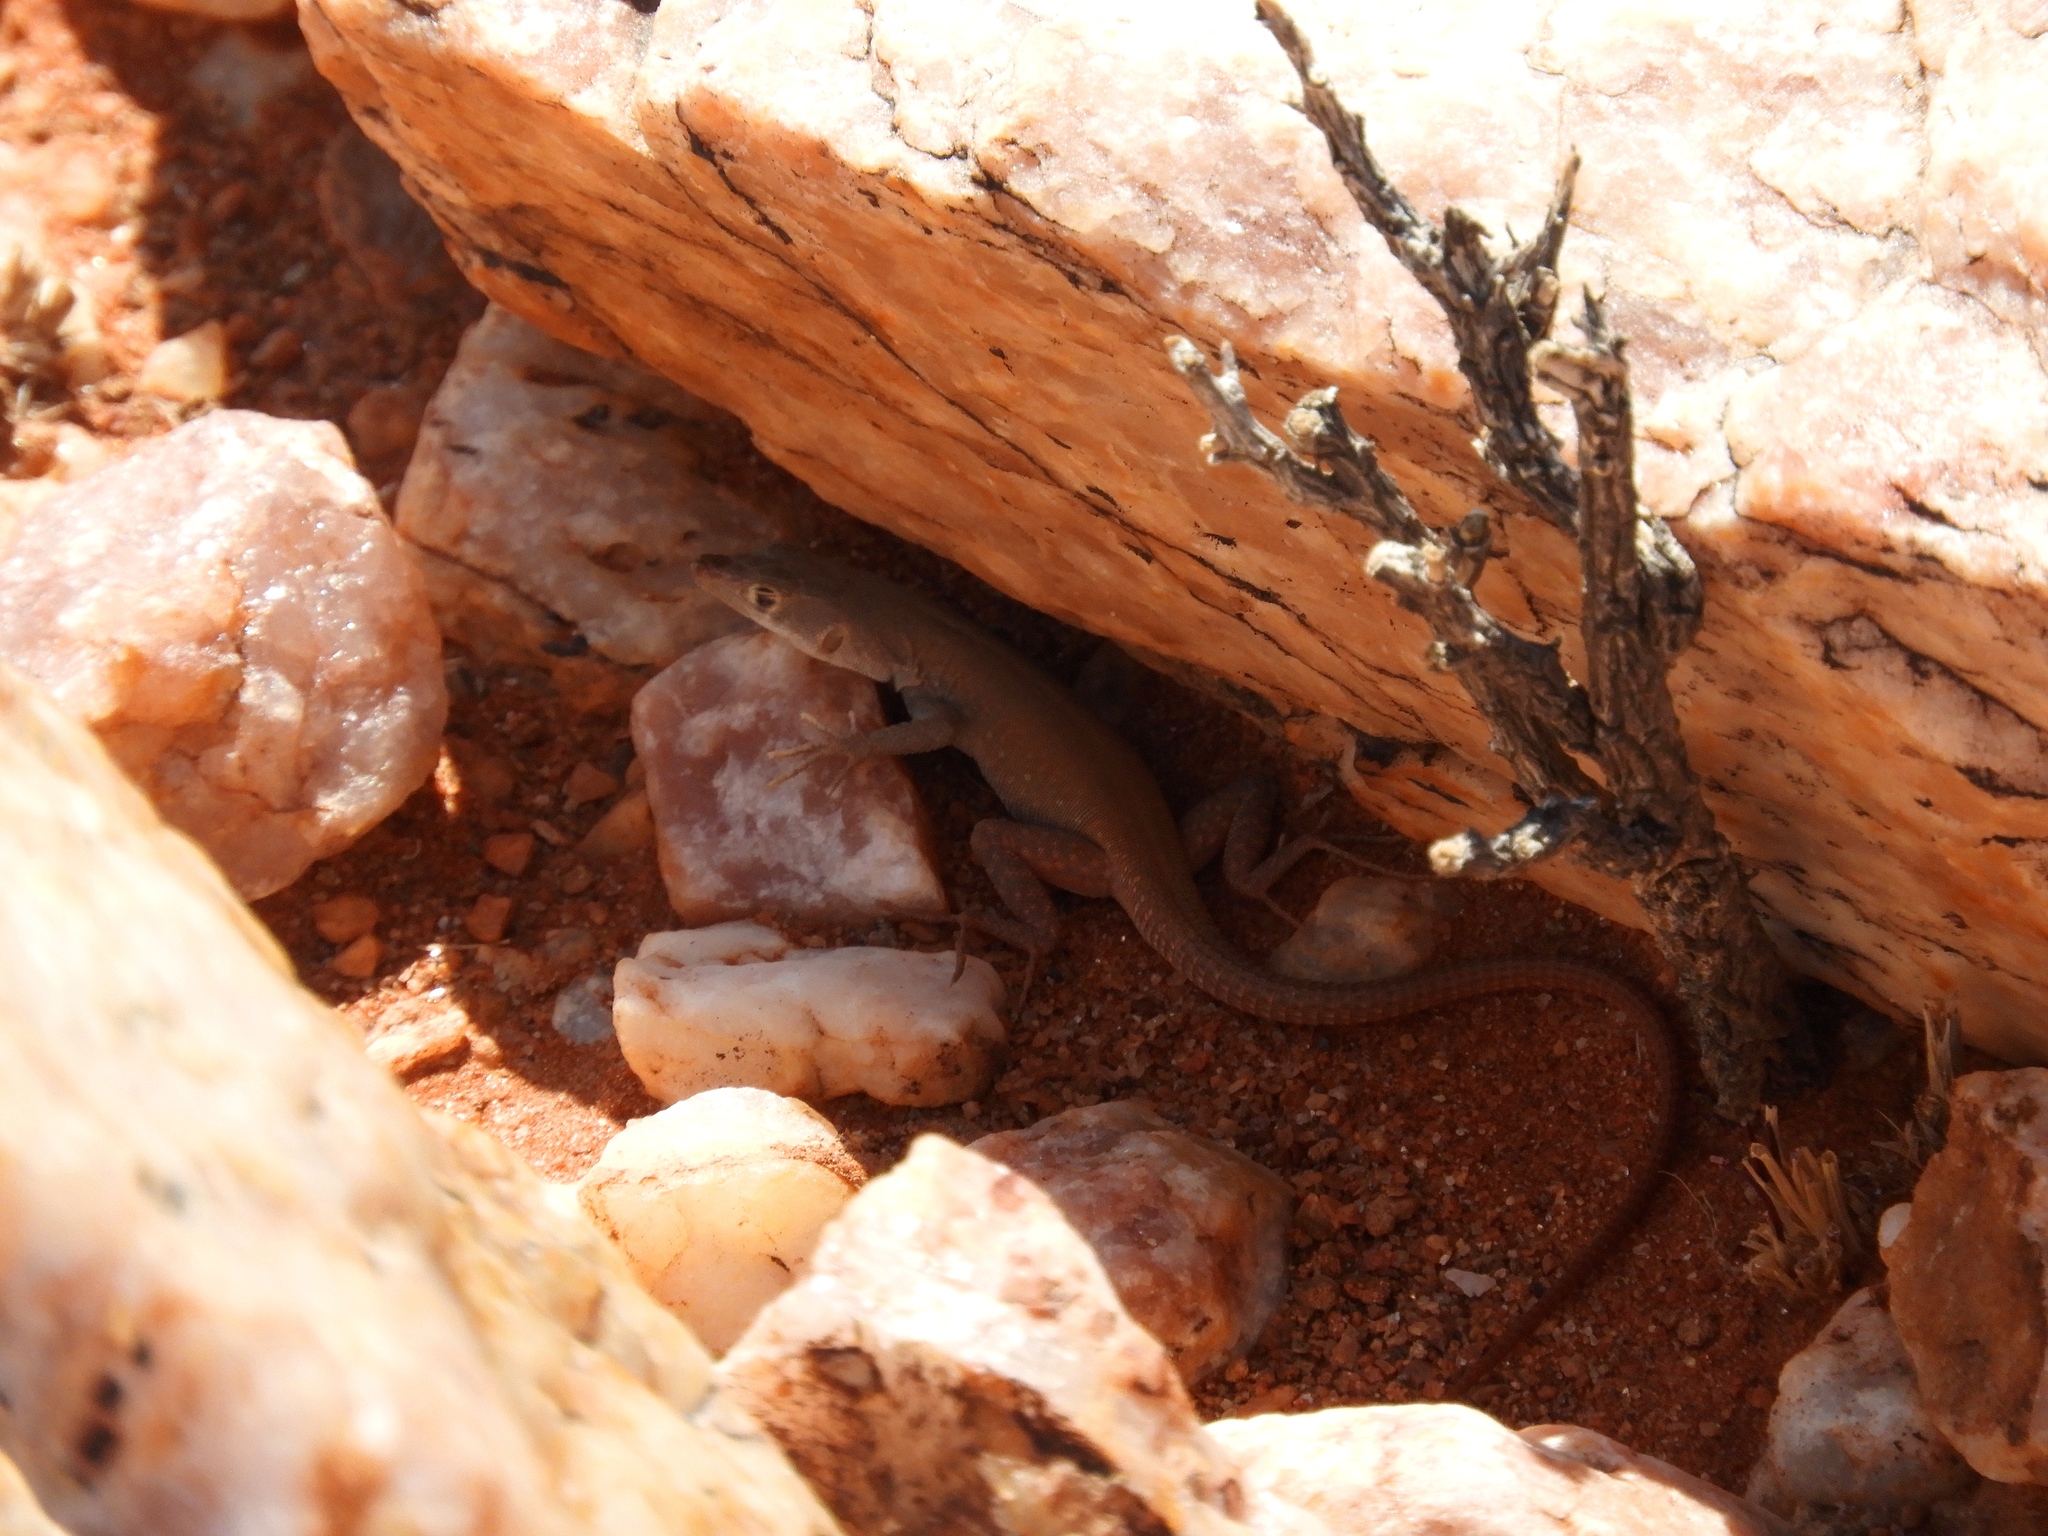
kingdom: Animalia
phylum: Chordata
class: Squamata
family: Lacertidae
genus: Pedioplanis
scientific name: Pedioplanis inornata
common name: Plain sand lizard
